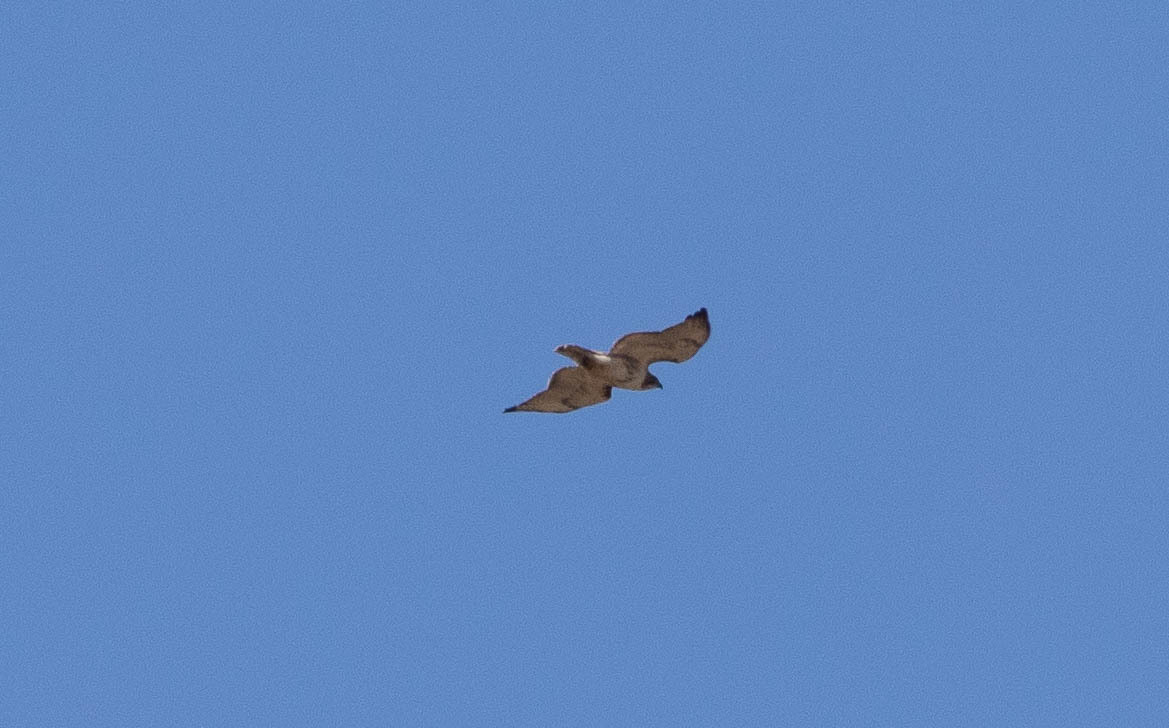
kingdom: Animalia
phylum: Chordata
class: Aves
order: Accipitriformes
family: Accipitridae
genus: Buteo
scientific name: Buteo jamaicensis
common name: Red-tailed hawk
